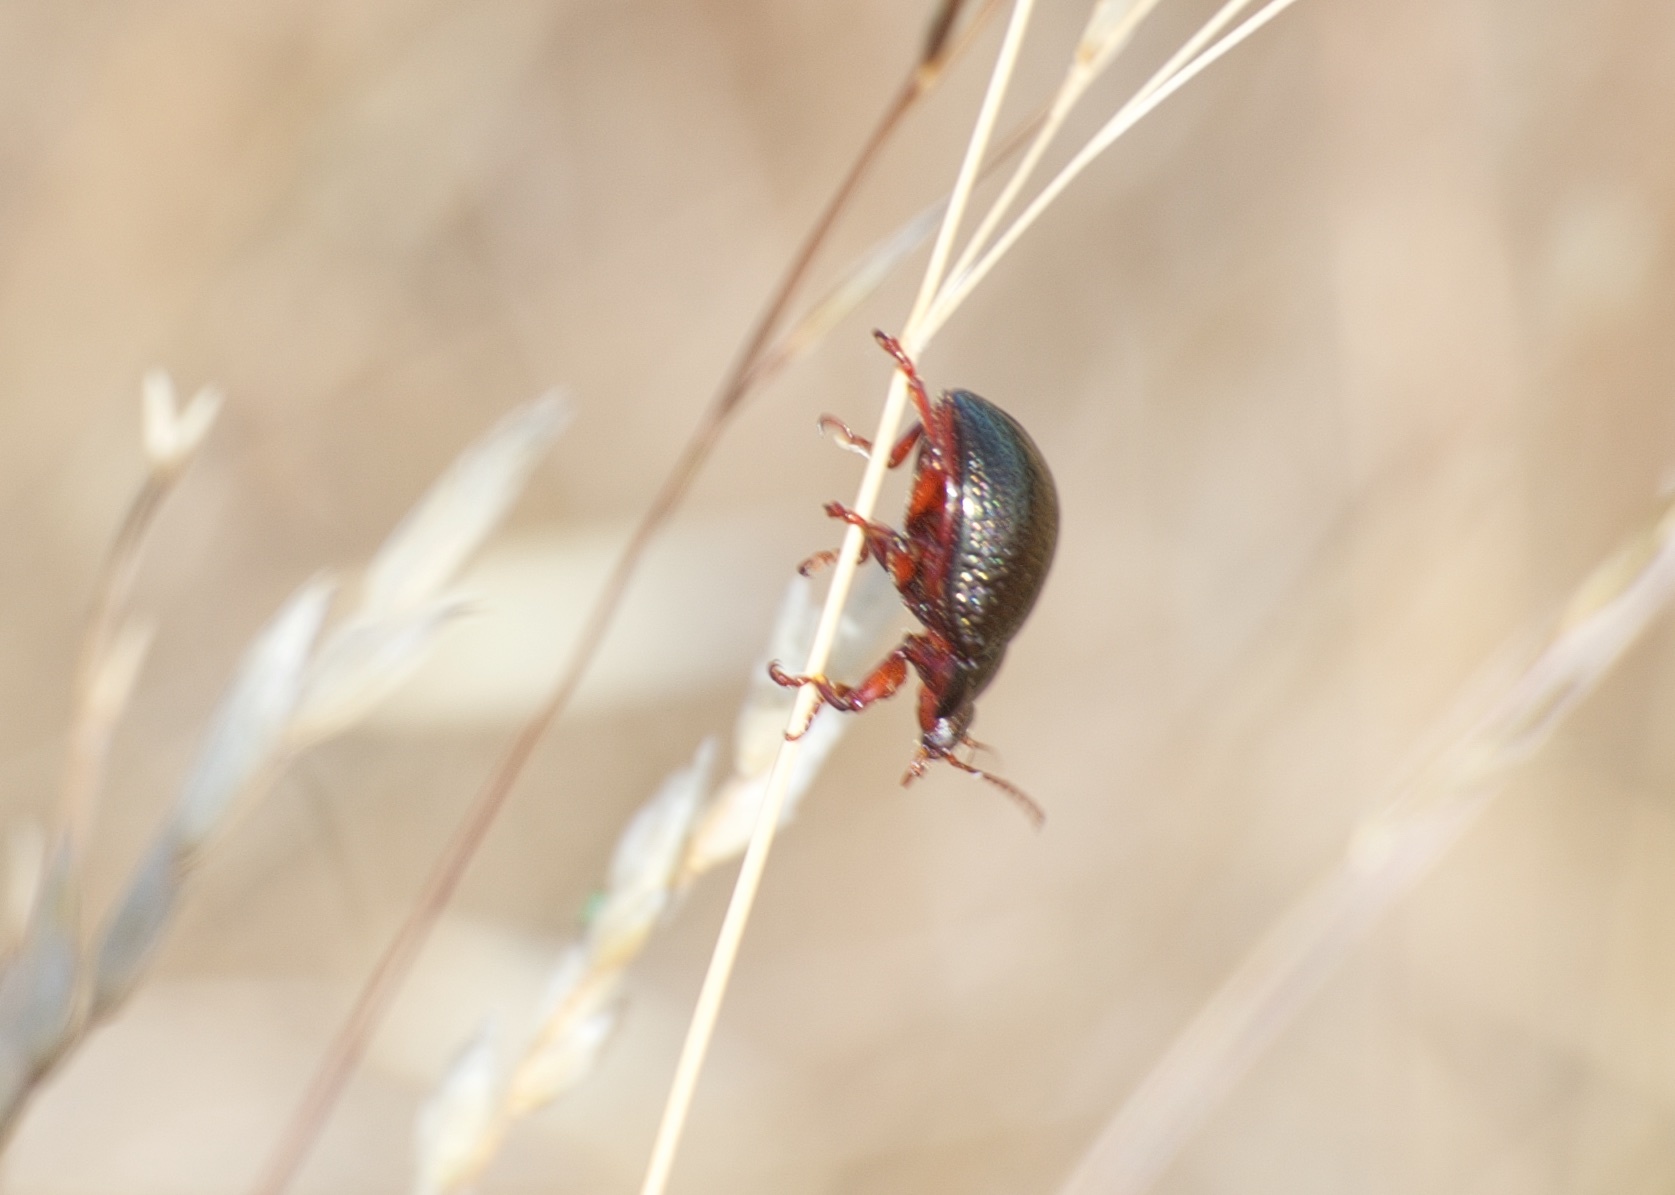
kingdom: Animalia
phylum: Arthropoda
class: Insecta
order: Coleoptera
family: Chrysomelidae
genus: Chrysolina
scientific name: Chrysolina bankii
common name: Leaf beetle
